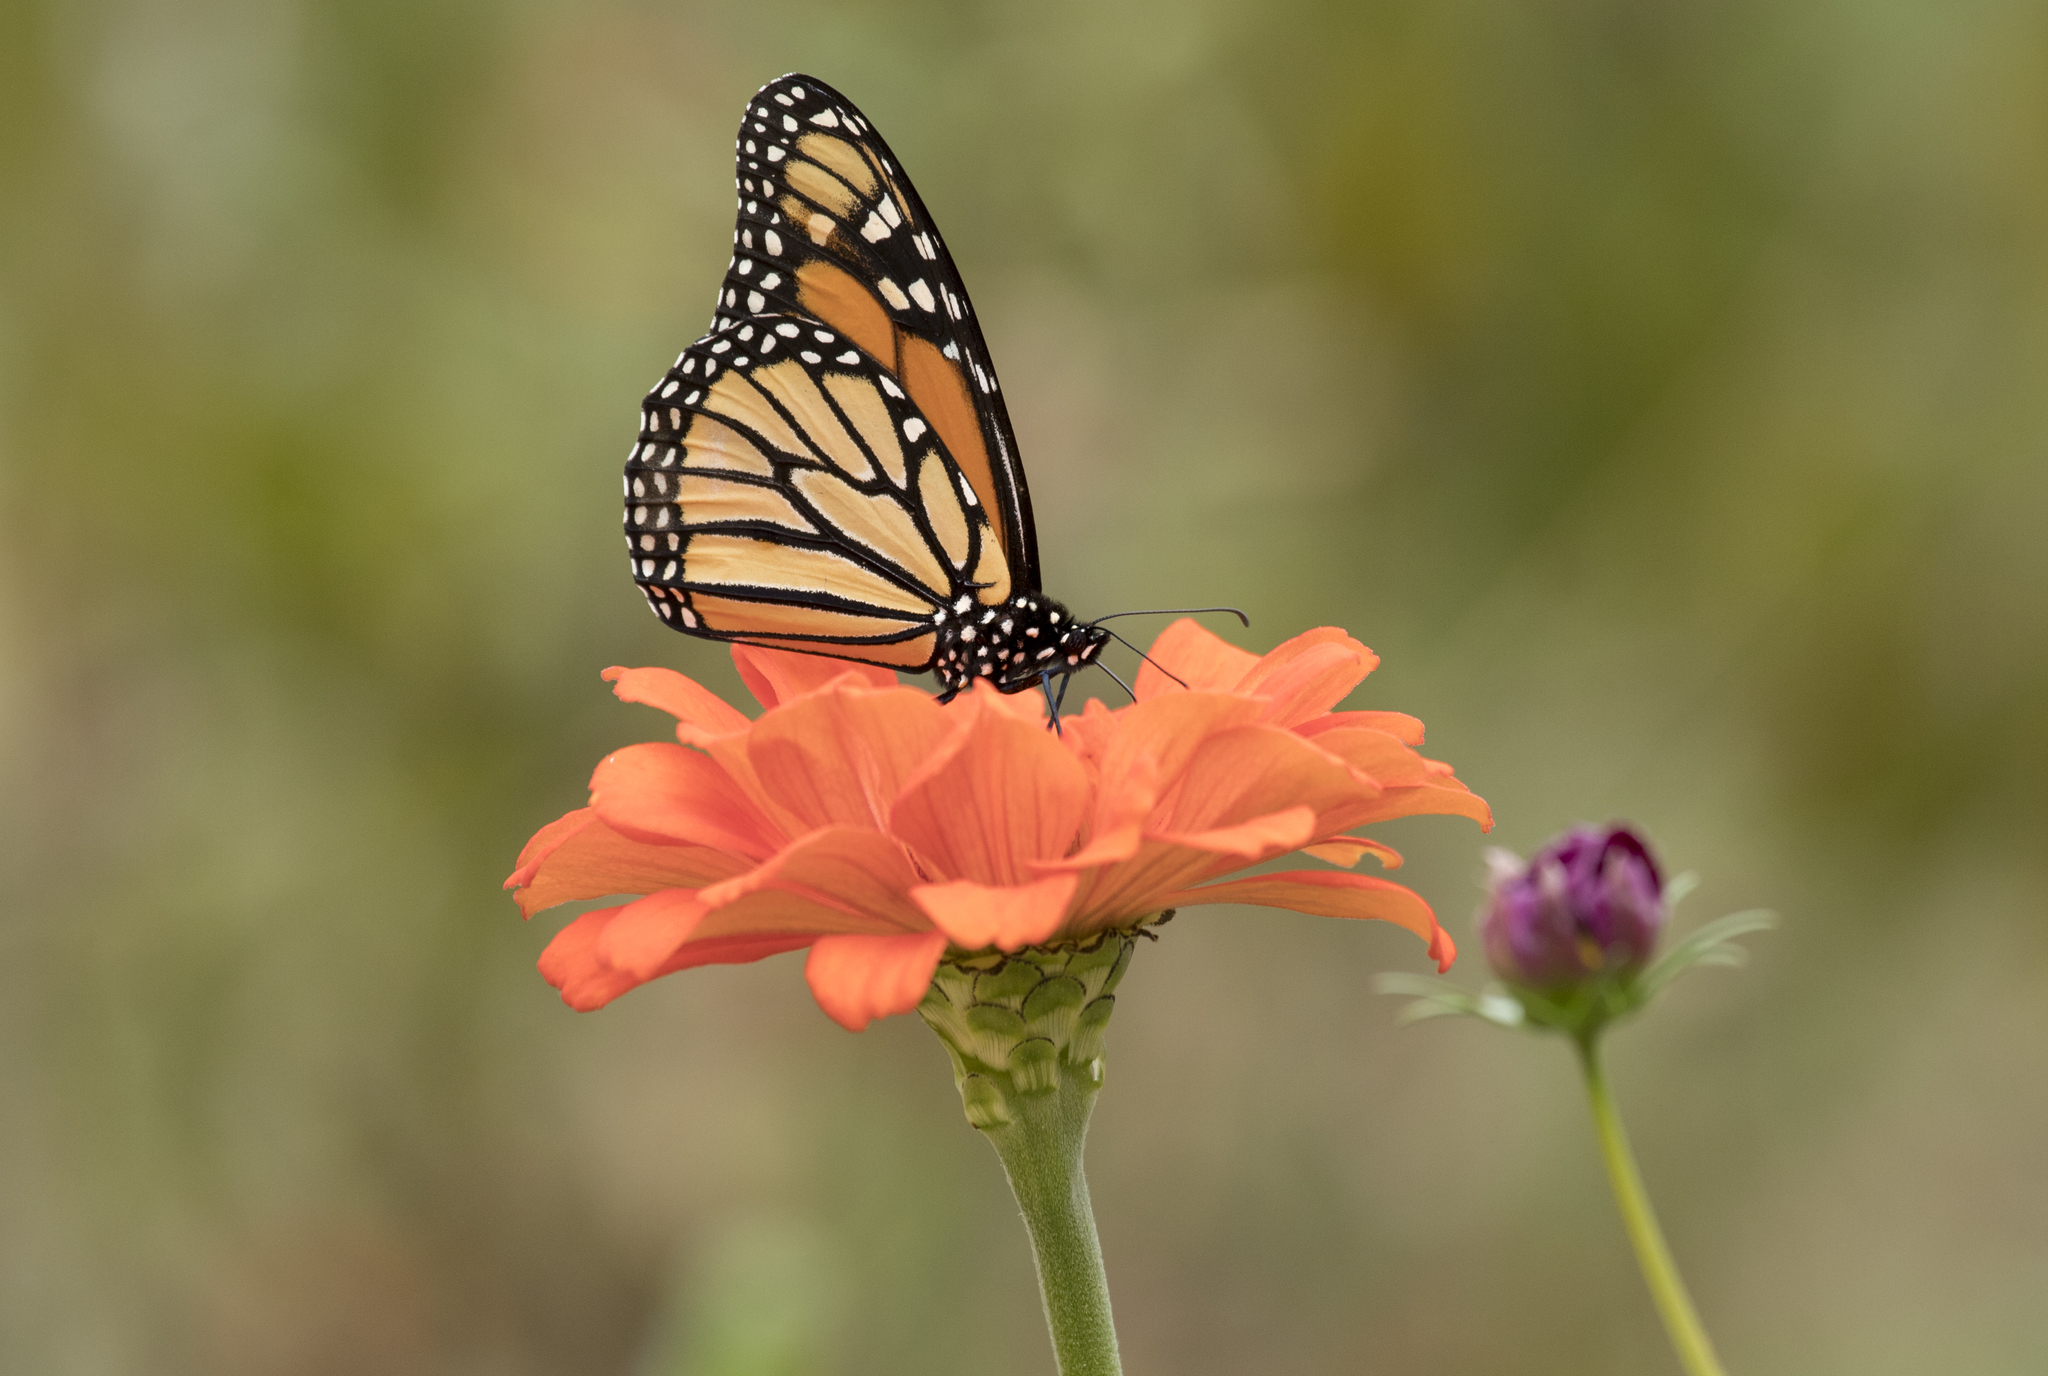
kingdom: Animalia
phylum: Arthropoda
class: Insecta
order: Lepidoptera
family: Nymphalidae
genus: Danaus
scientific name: Danaus plexippus
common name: Monarch
